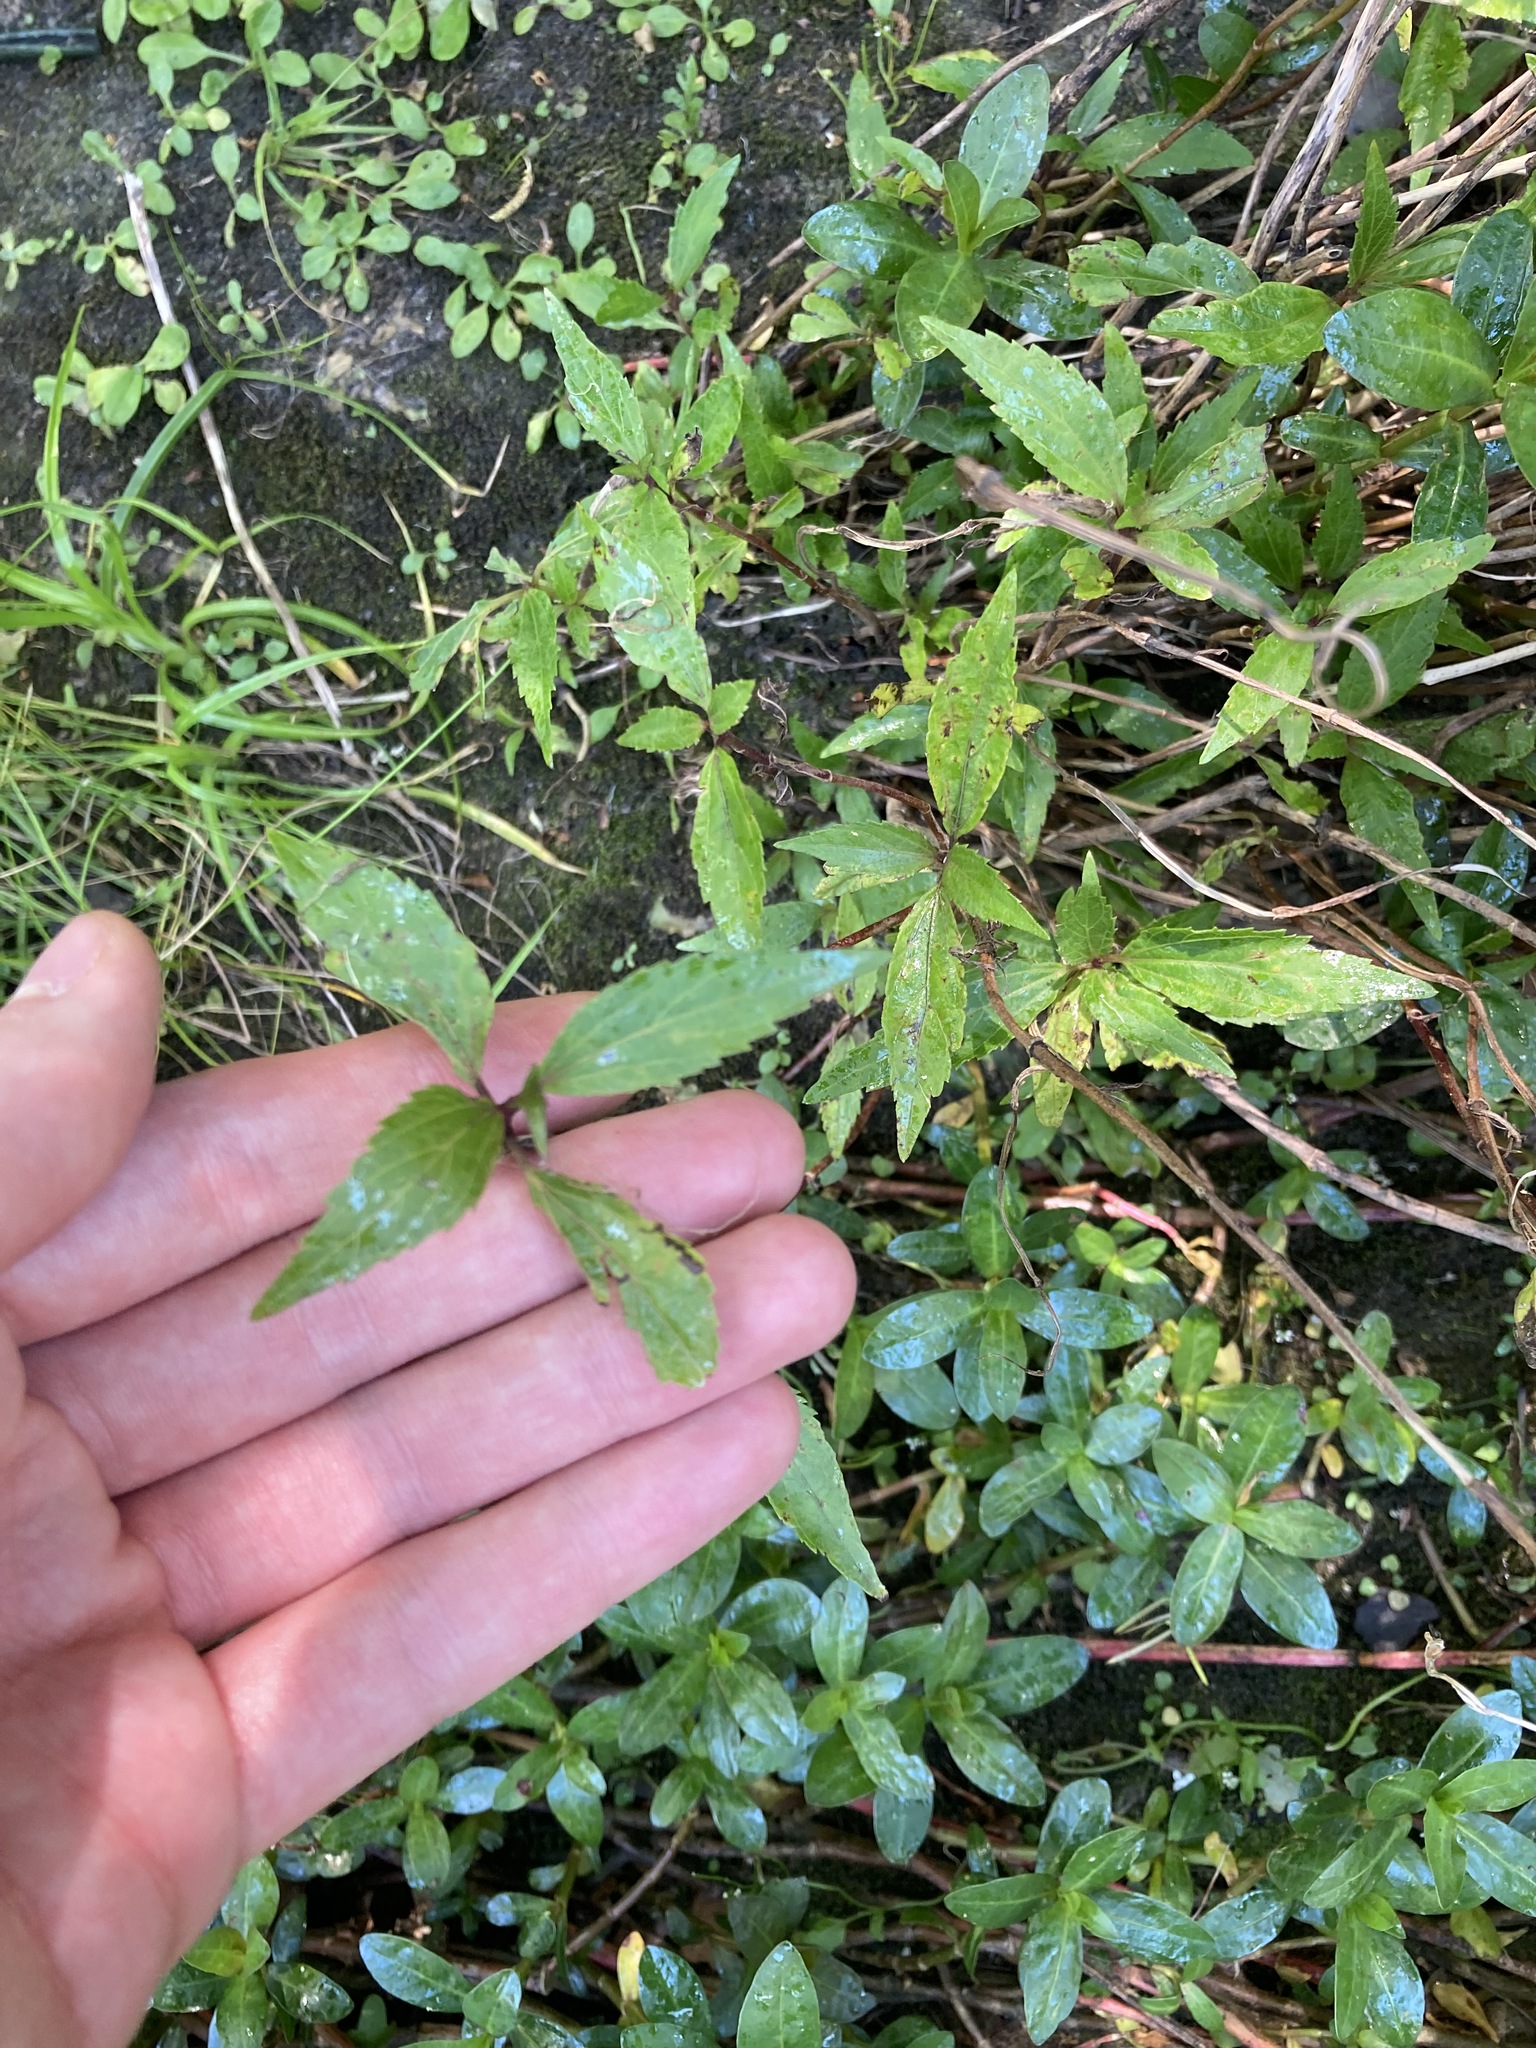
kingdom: Plantae
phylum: Tracheophyta
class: Magnoliopsida
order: Asterales
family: Asteraceae
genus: Ageratina
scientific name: Ageratina riparia
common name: Creeping croftonweed
